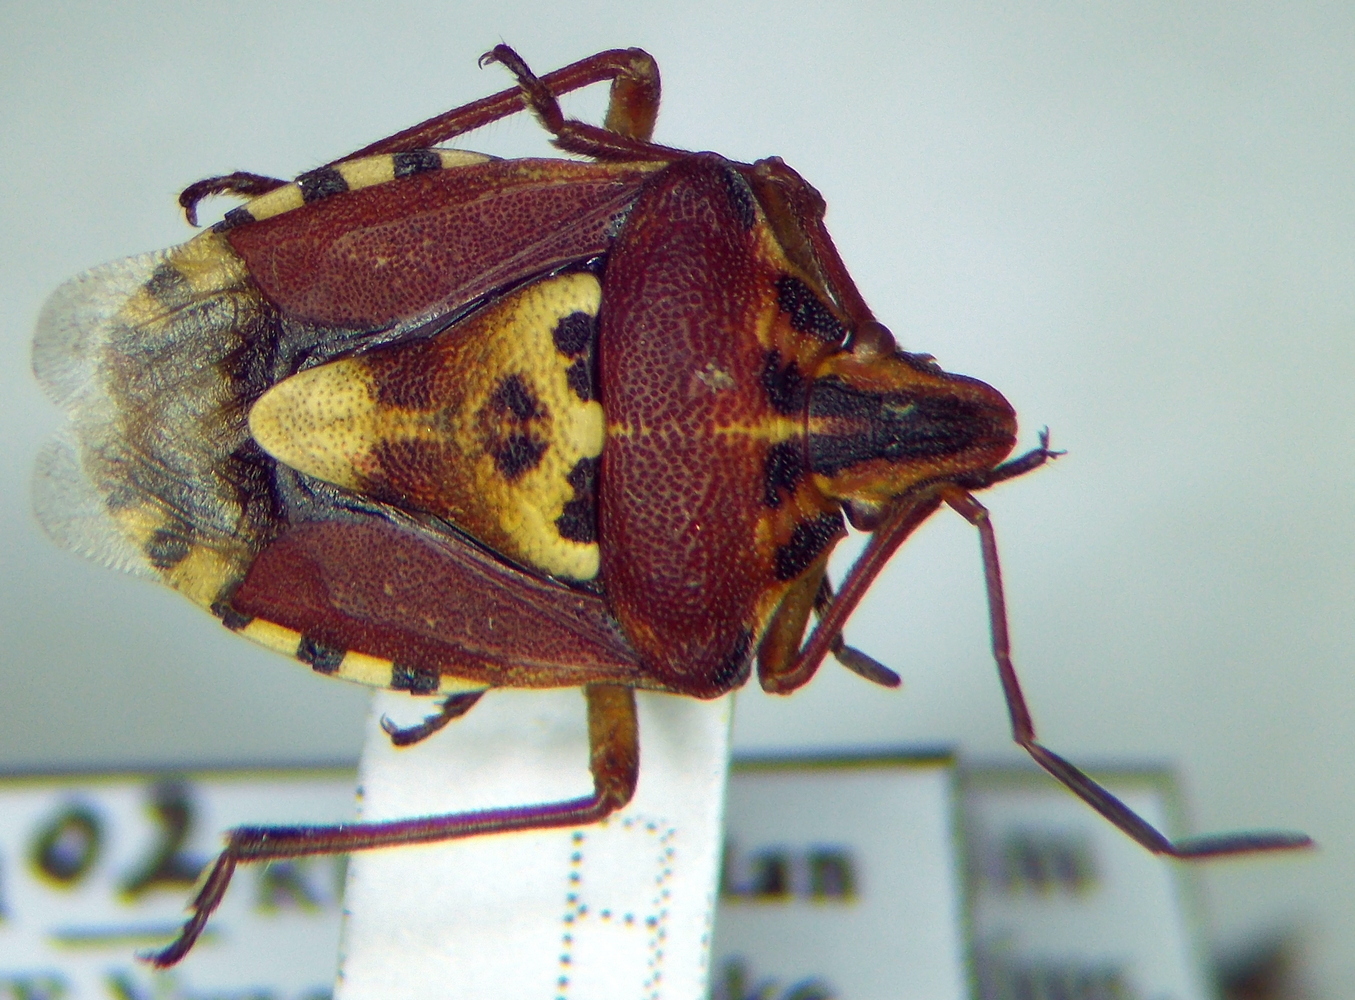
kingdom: Animalia
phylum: Arthropoda
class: Insecta
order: Hemiptera
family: Miridae
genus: Orthops
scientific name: Orthops kalmii
